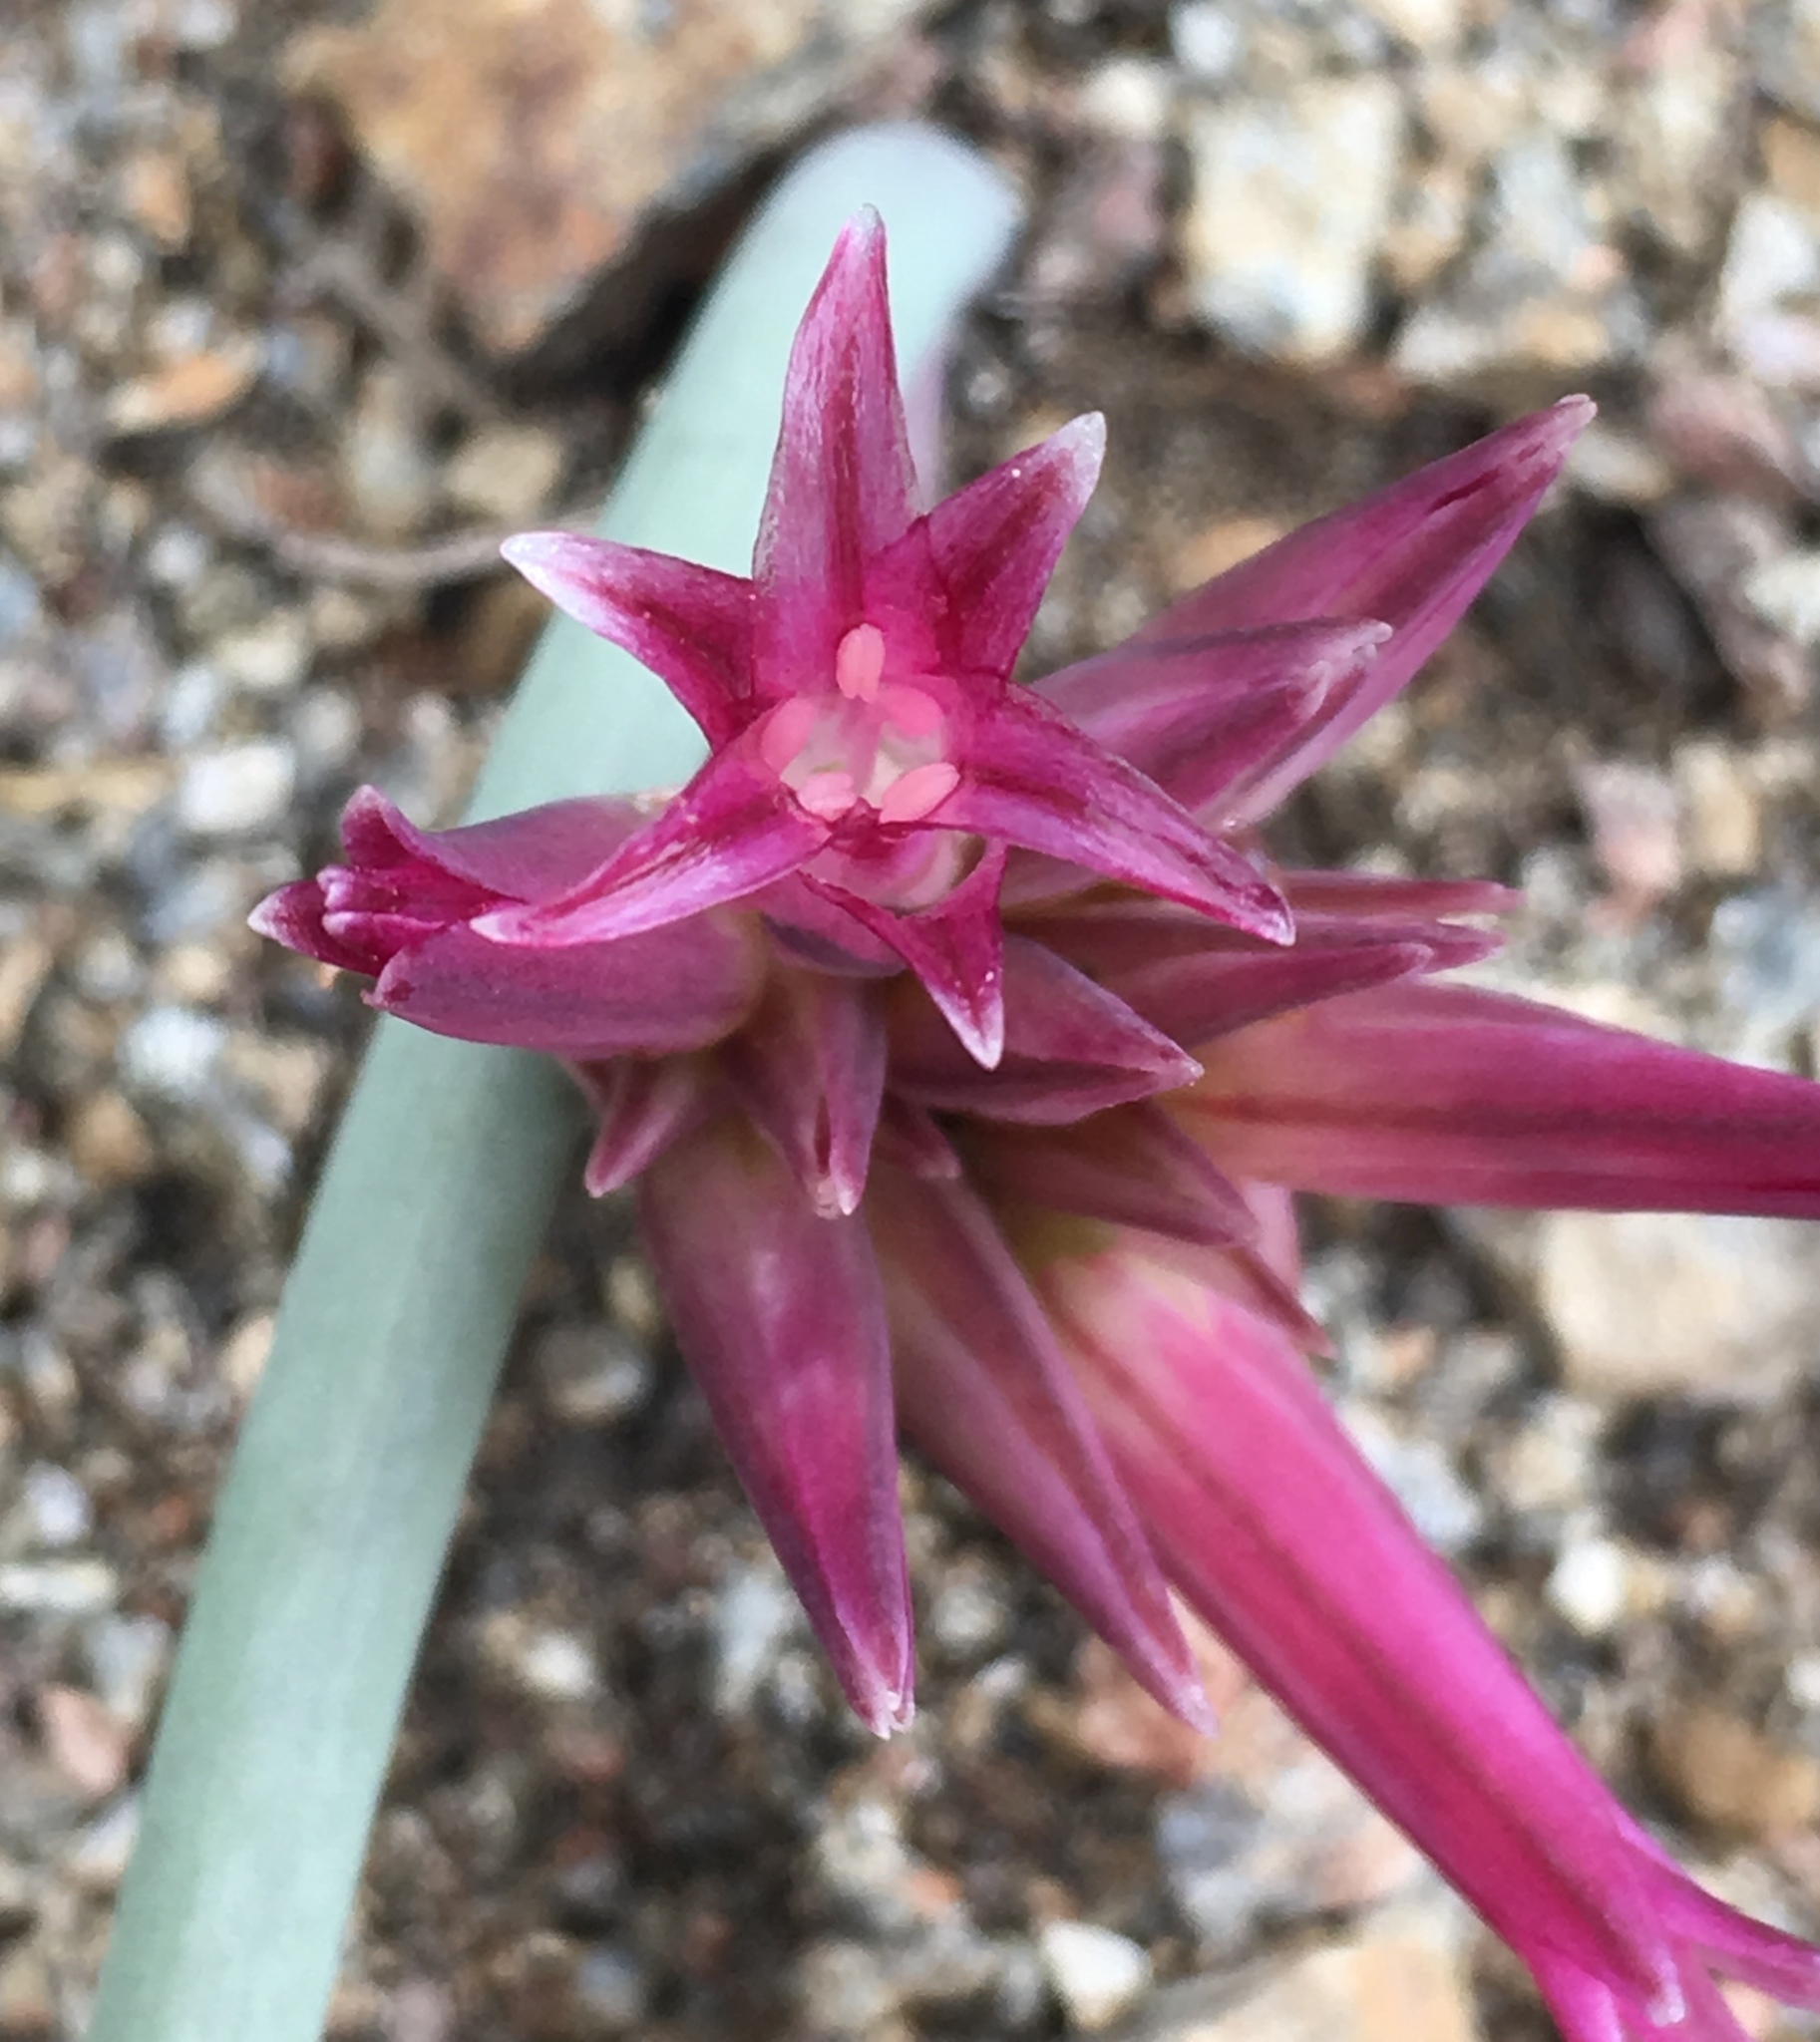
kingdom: Plantae
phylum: Tracheophyta
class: Liliopsida
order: Asparagales
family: Amaryllidaceae
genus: Allium
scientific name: Allium monticola
